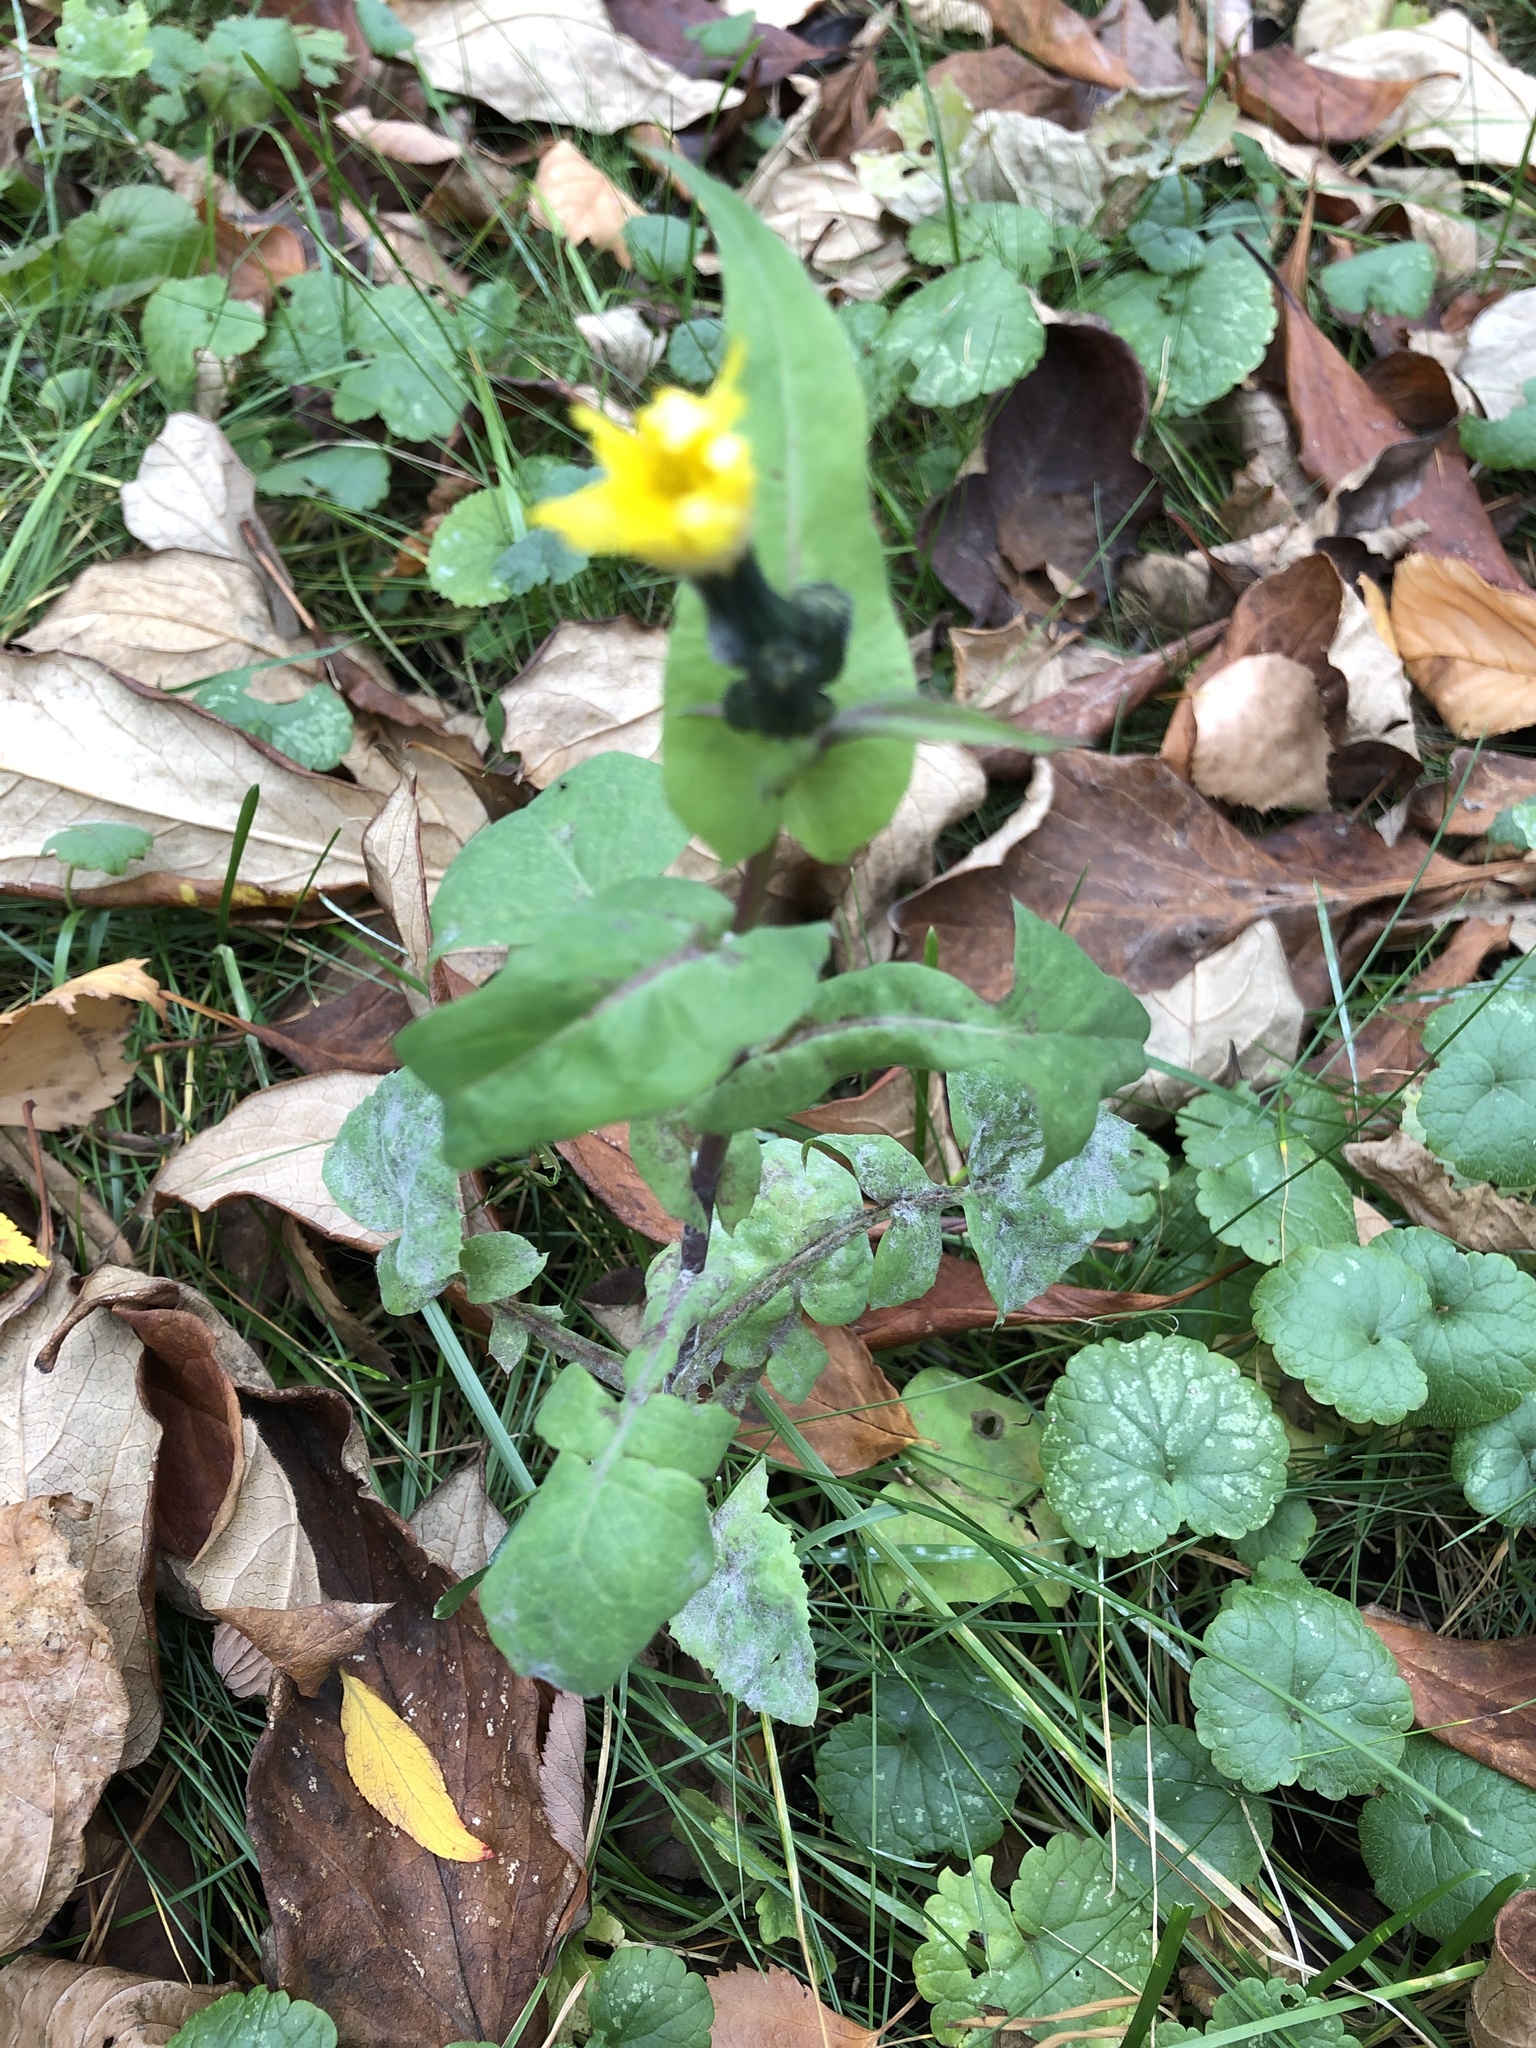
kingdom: Plantae
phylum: Tracheophyta
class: Magnoliopsida
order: Asterales
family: Asteraceae
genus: Sonchus
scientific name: Sonchus oleraceus
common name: Common sowthistle
